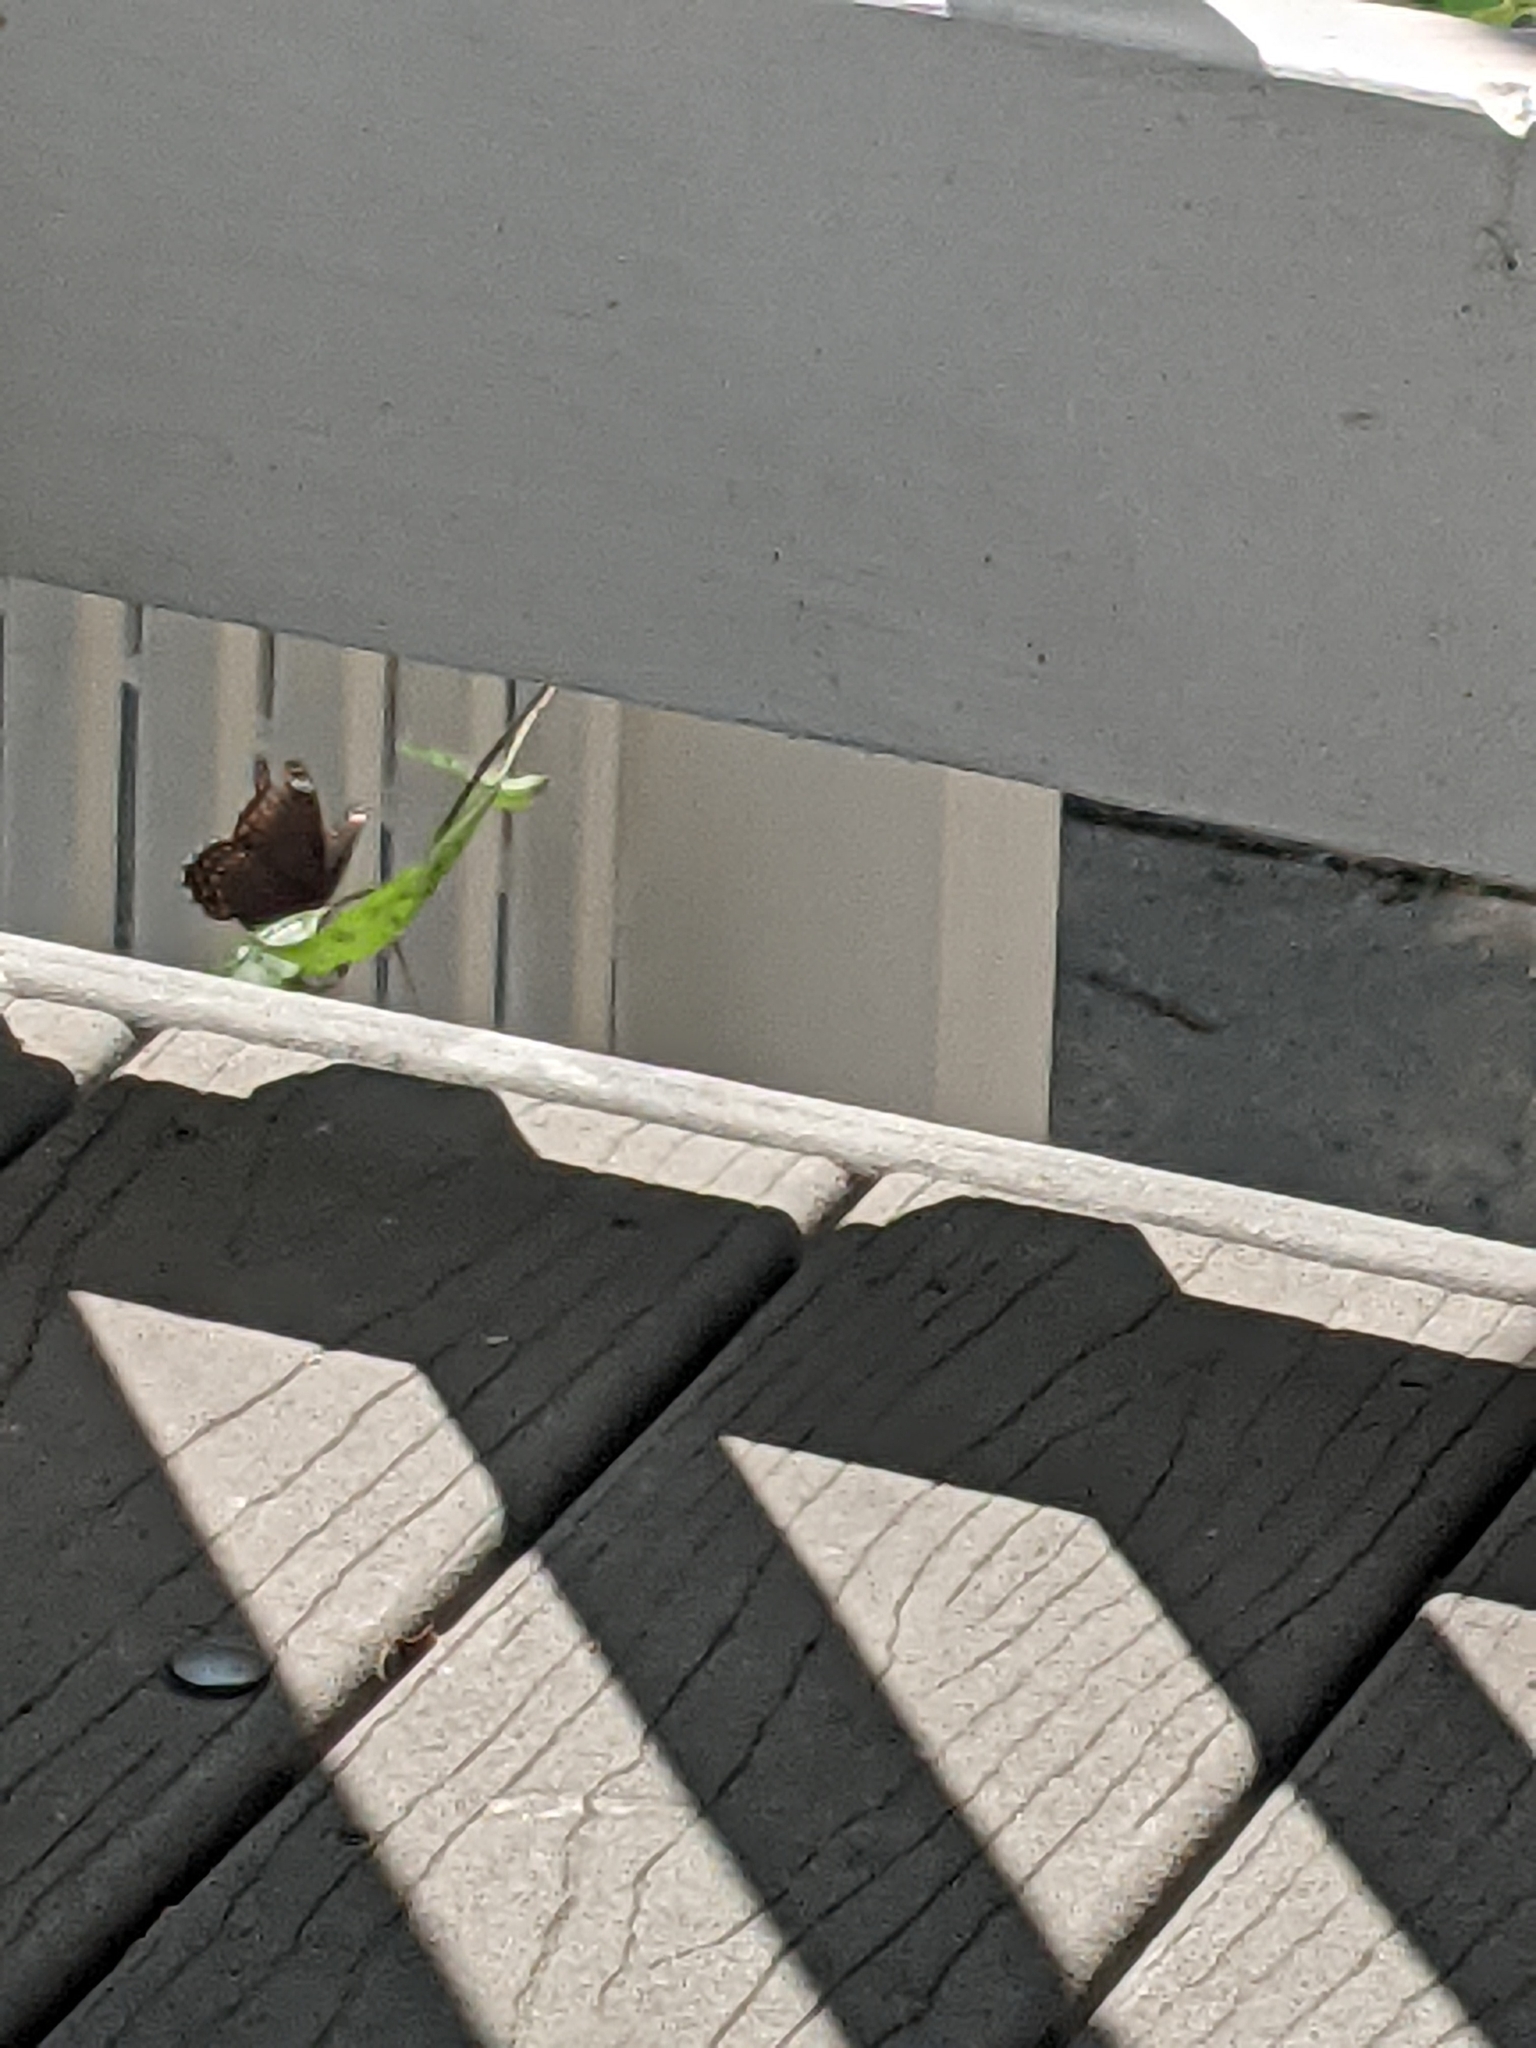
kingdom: Animalia
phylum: Arthropoda
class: Insecta
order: Lepidoptera
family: Nymphalidae
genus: Limenitis
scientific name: Limenitis astyanax
